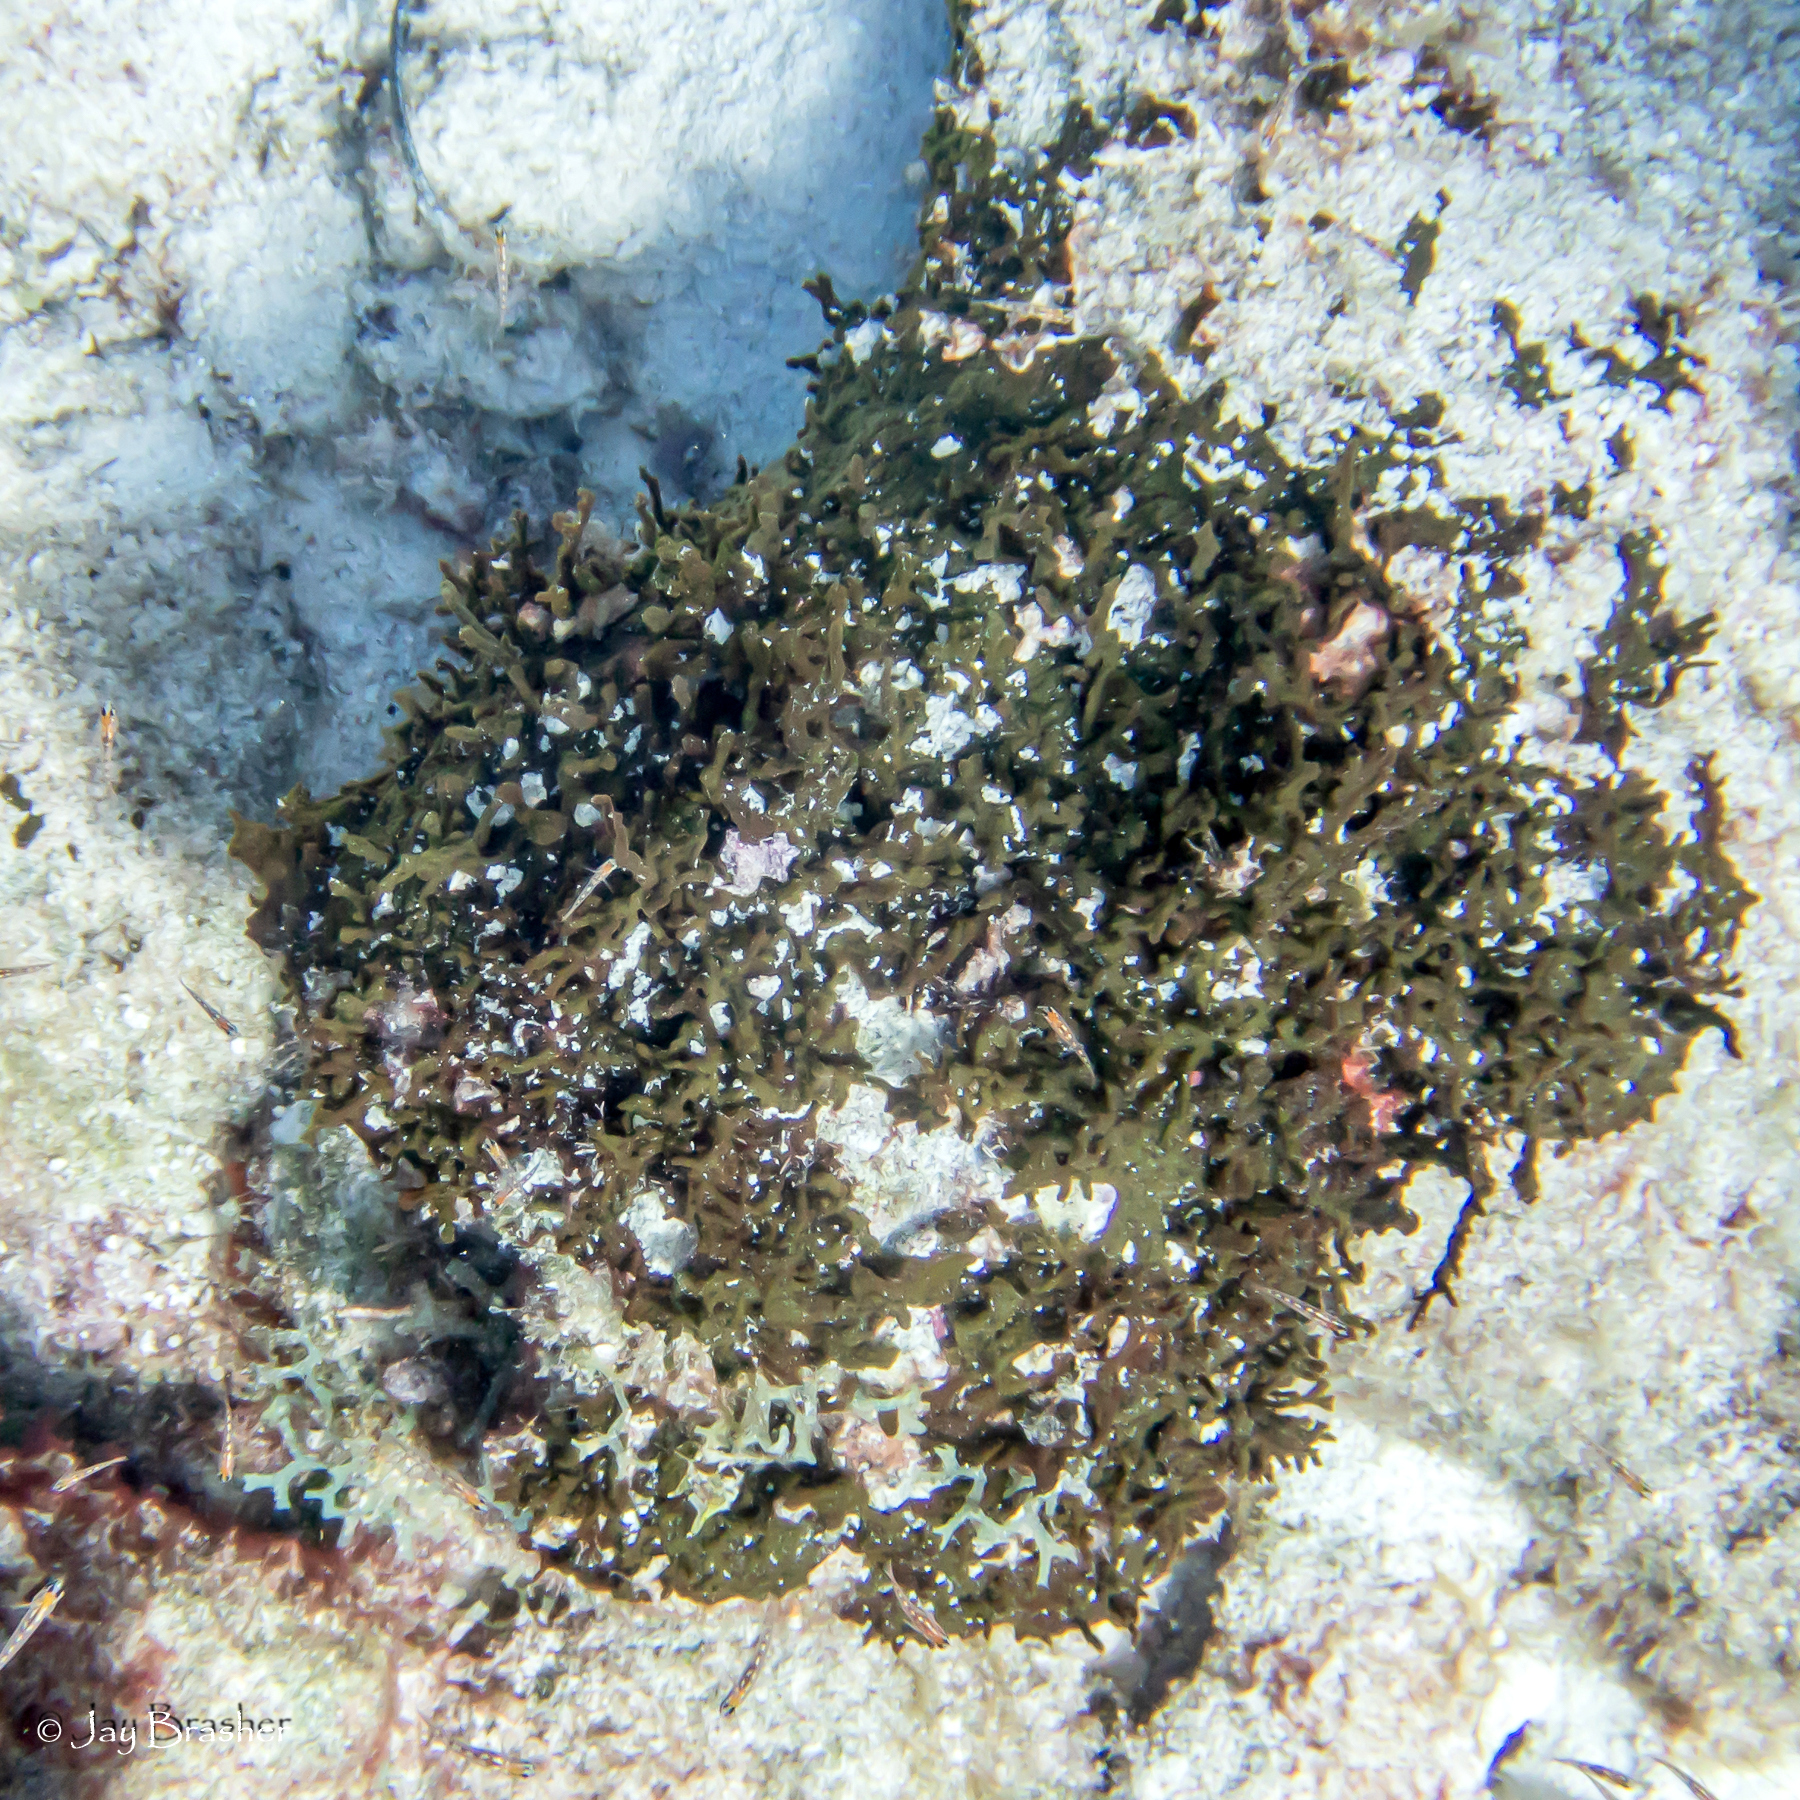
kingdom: Animalia
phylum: Porifera
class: Demospongiae
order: Bubarida
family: Dictyonellidae
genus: Dictyonella
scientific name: Dictyonella funicularis
